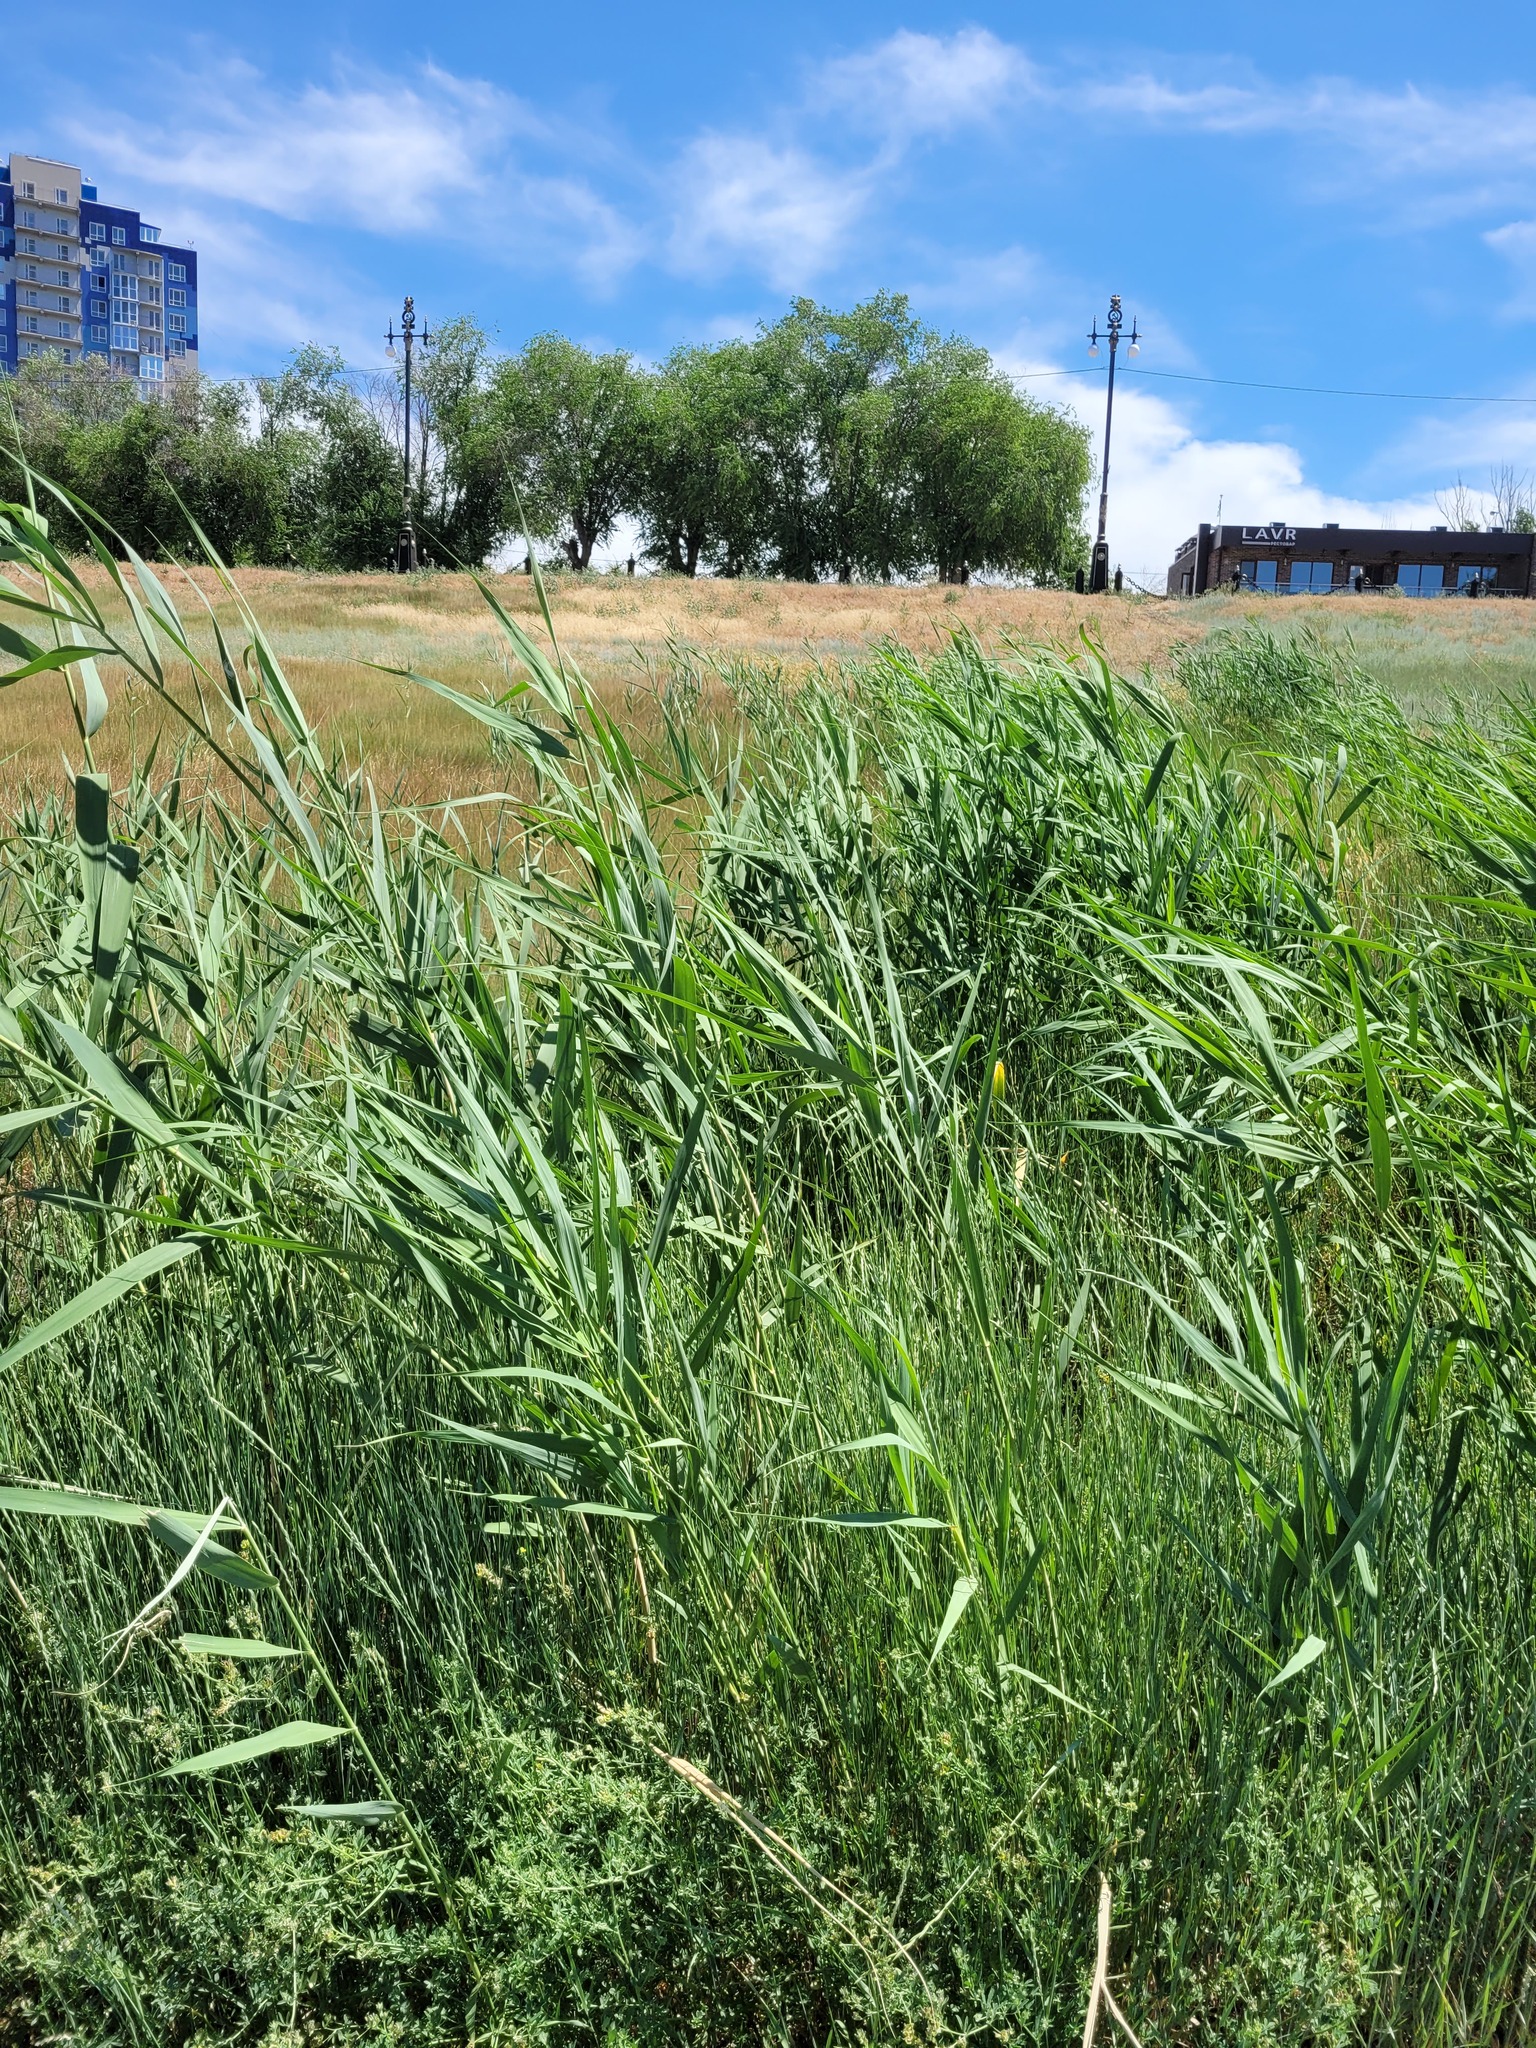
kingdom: Plantae
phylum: Tracheophyta
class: Liliopsida
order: Poales
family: Poaceae
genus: Phragmites
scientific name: Phragmites australis
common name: Common reed
